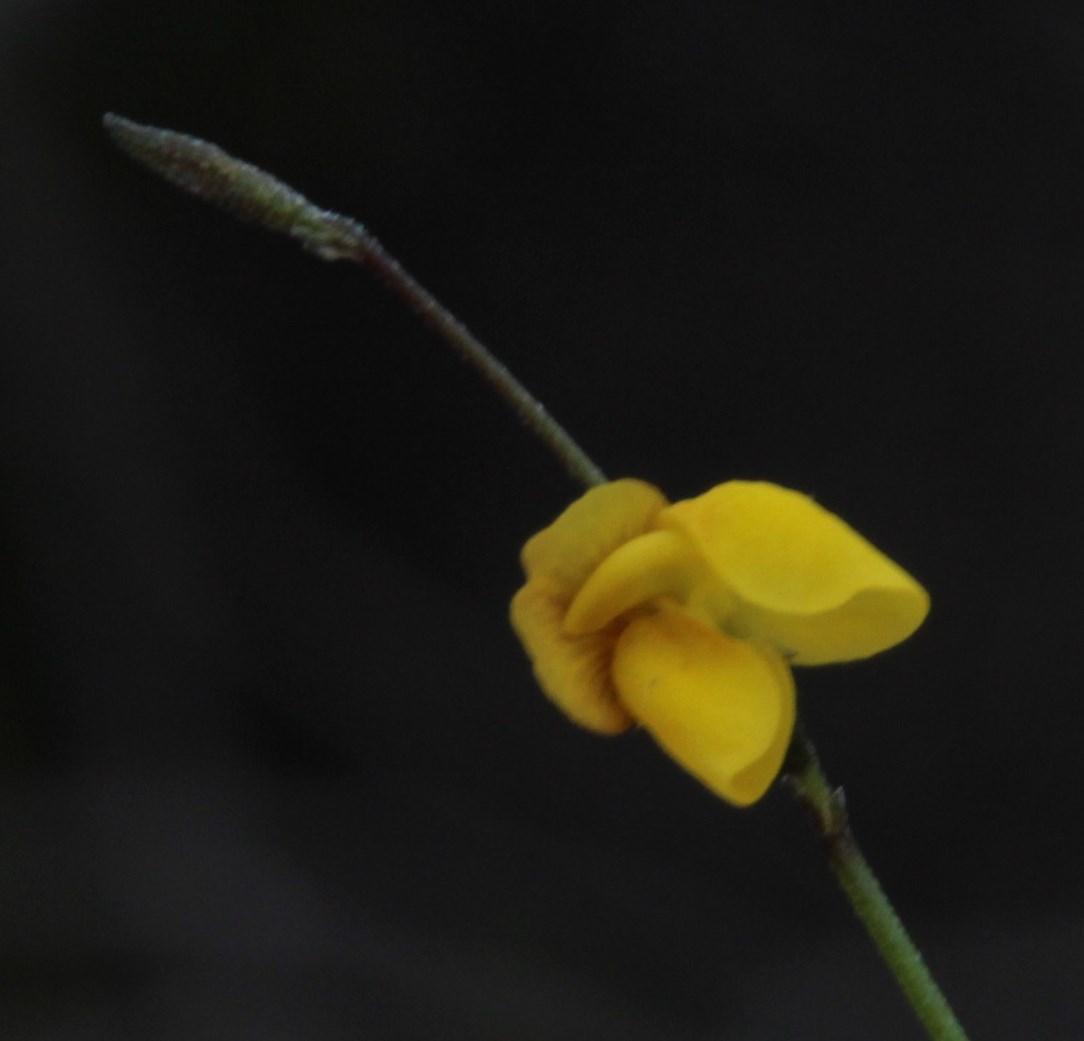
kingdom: Plantae
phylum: Tracheophyta
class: Magnoliopsida
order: Fabales
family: Fabaceae
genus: Lebeckia
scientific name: Lebeckia wrightii
